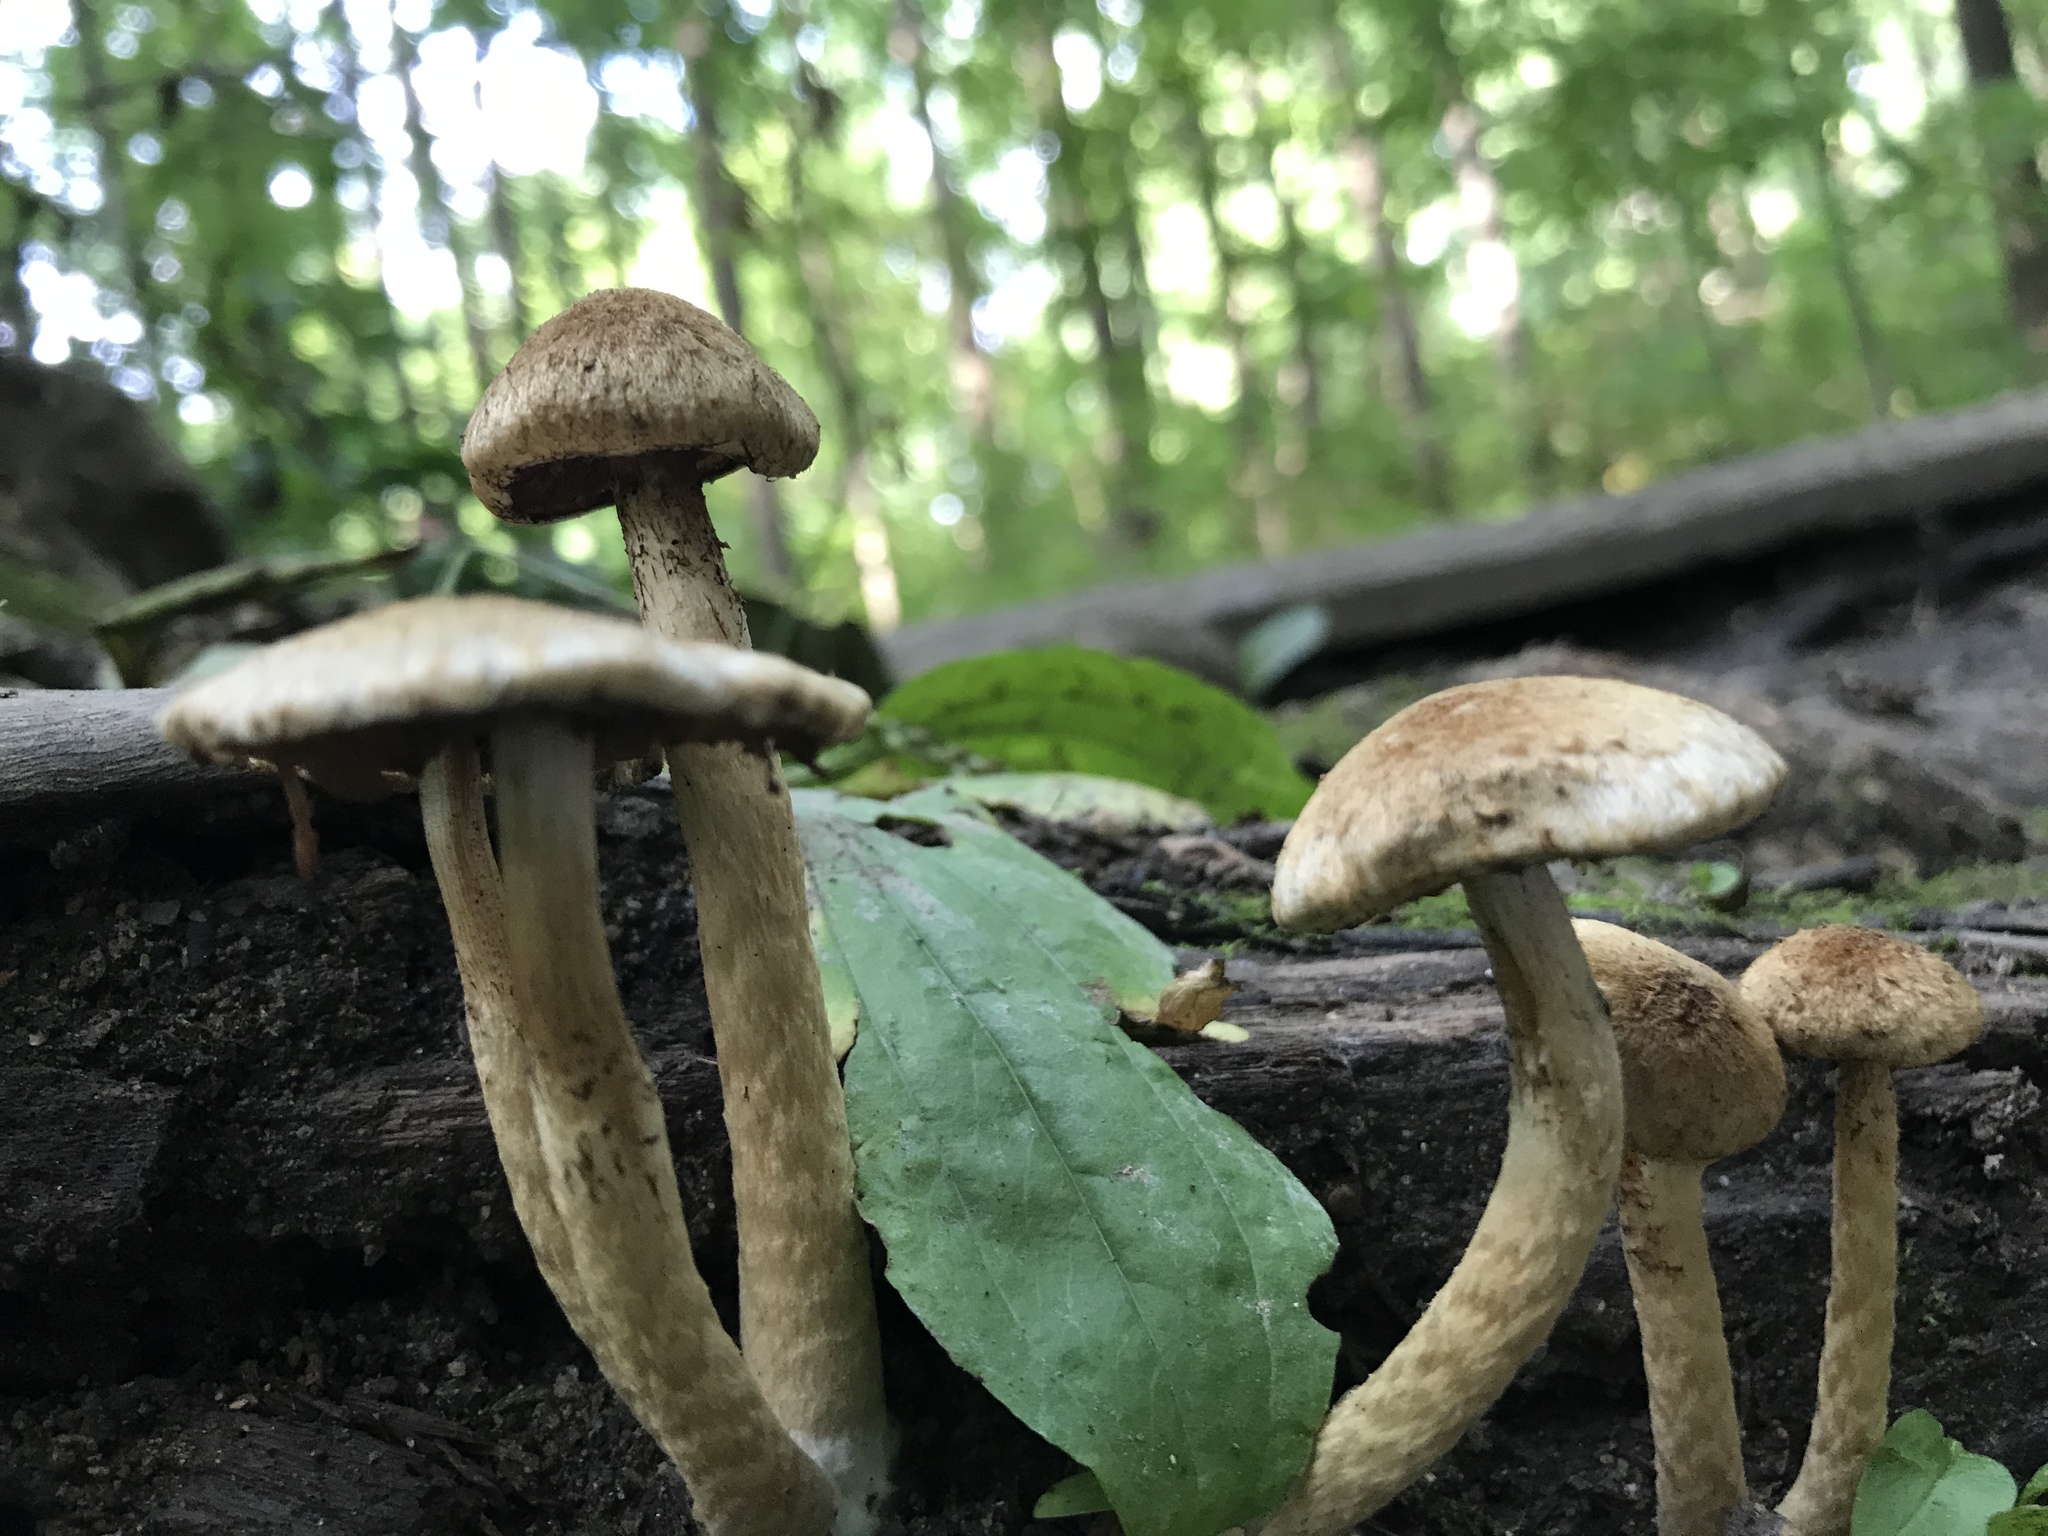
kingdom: Fungi
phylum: Basidiomycota
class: Agaricomycetes
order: Agaricales
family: Psathyrellaceae
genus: Lacrymaria
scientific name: Lacrymaria lacrymabunda
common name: Weeping widow
